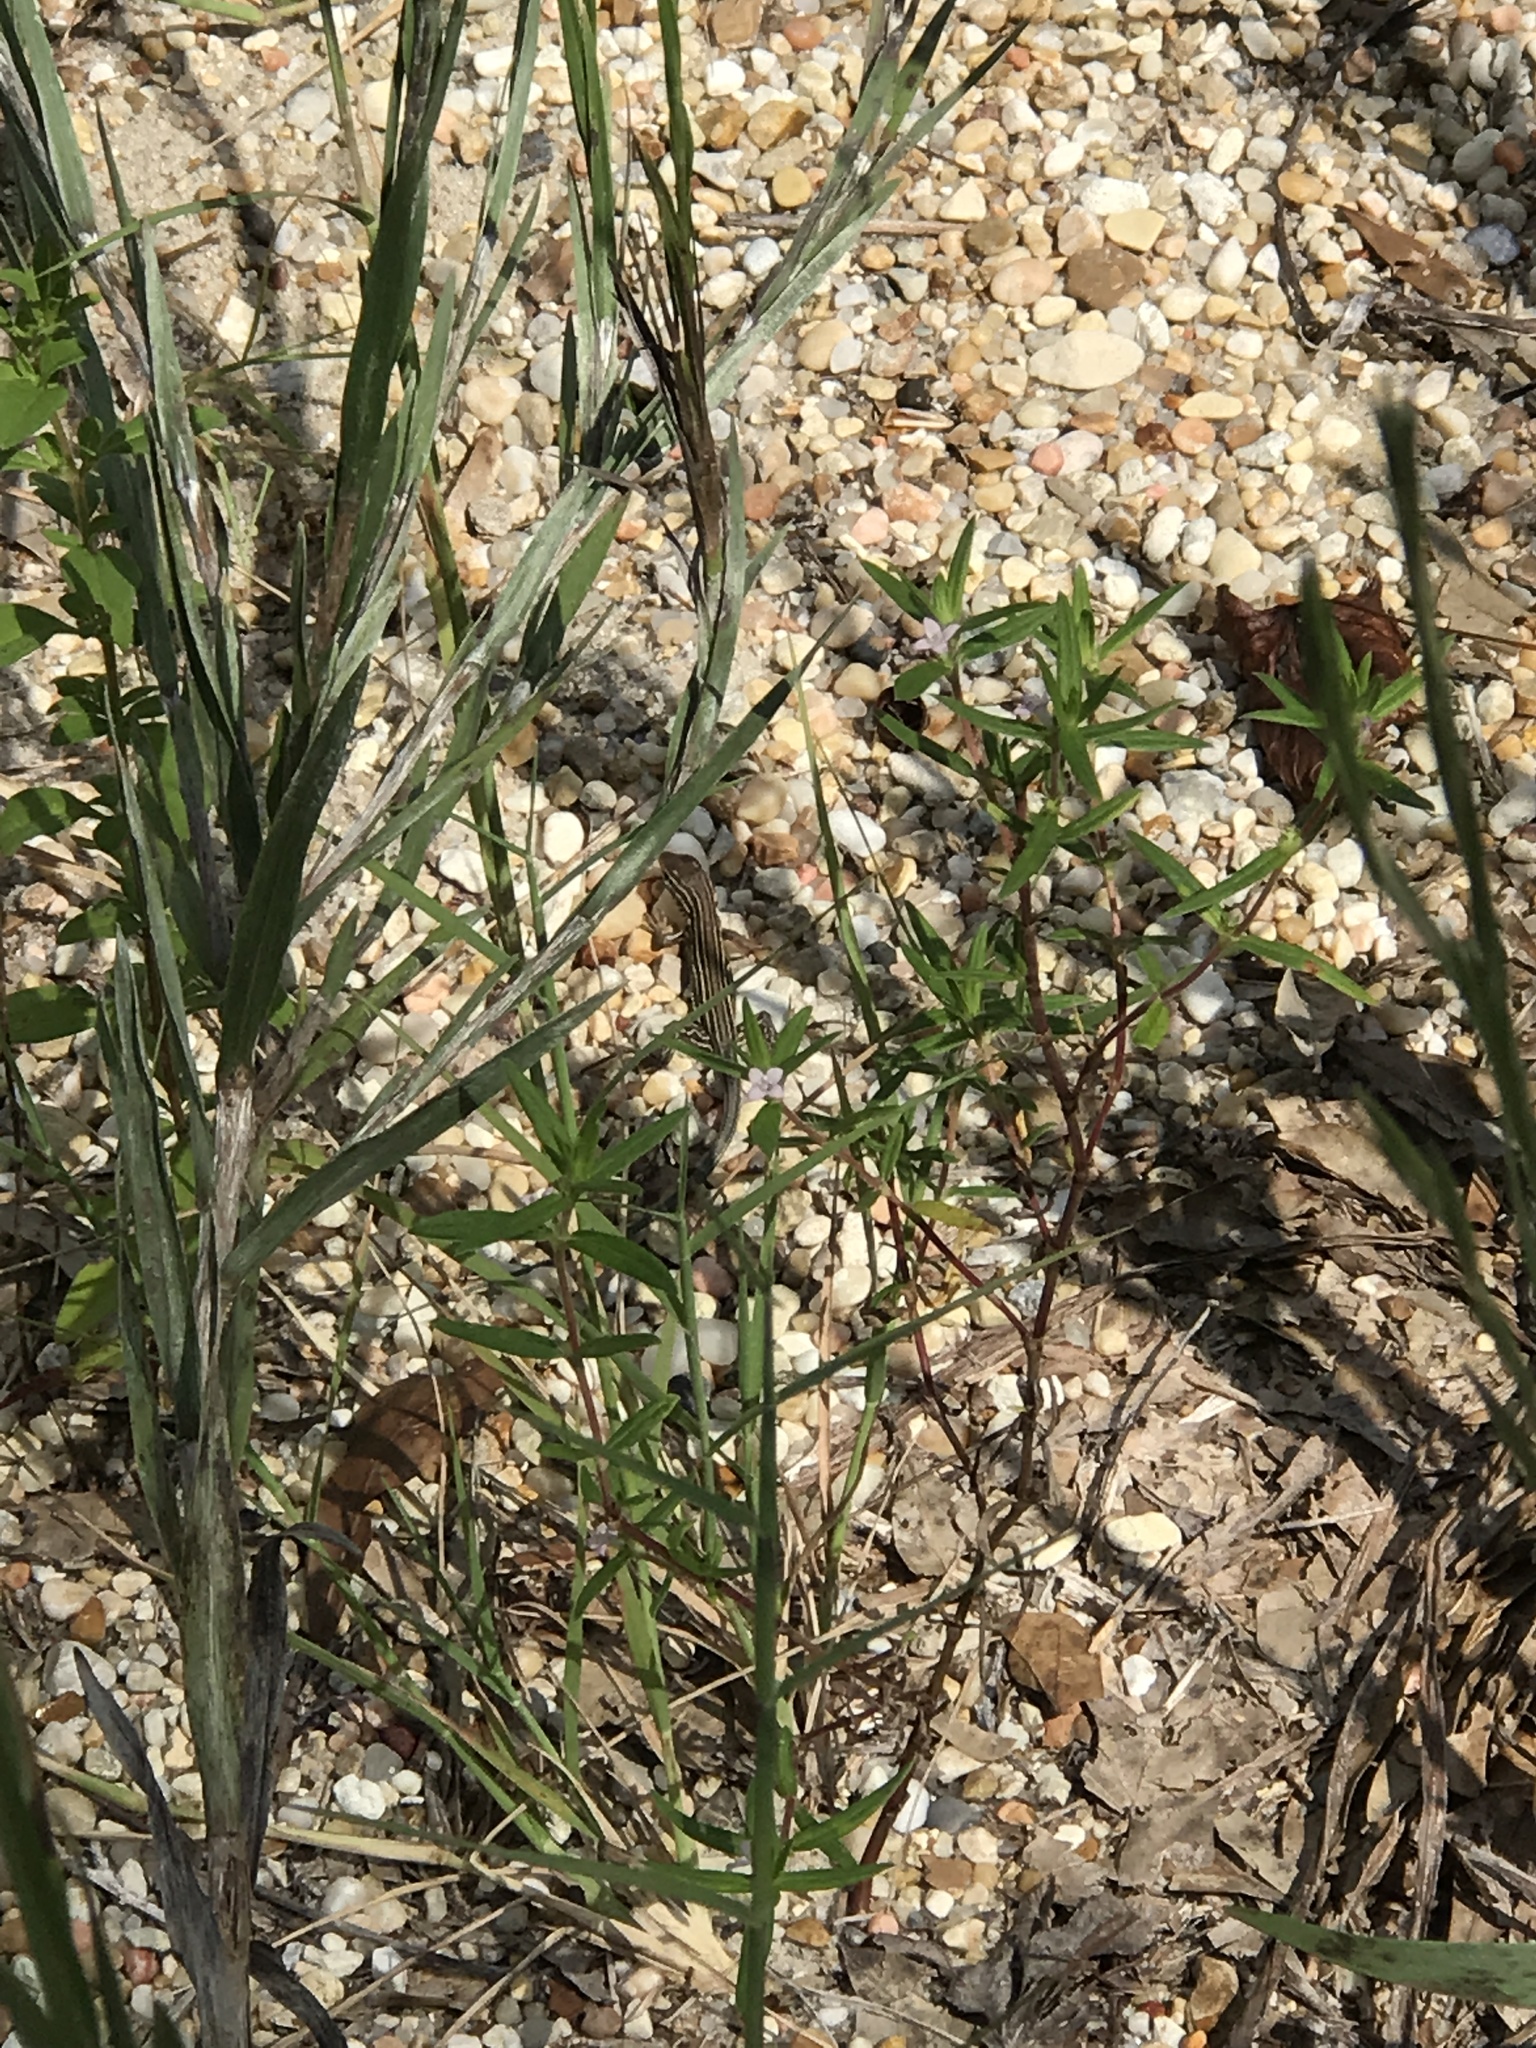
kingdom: Animalia
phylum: Chordata
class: Squamata
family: Teiidae
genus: Aspidoscelis
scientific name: Aspidoscelis sexlineatus
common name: Six-lined racerunner
